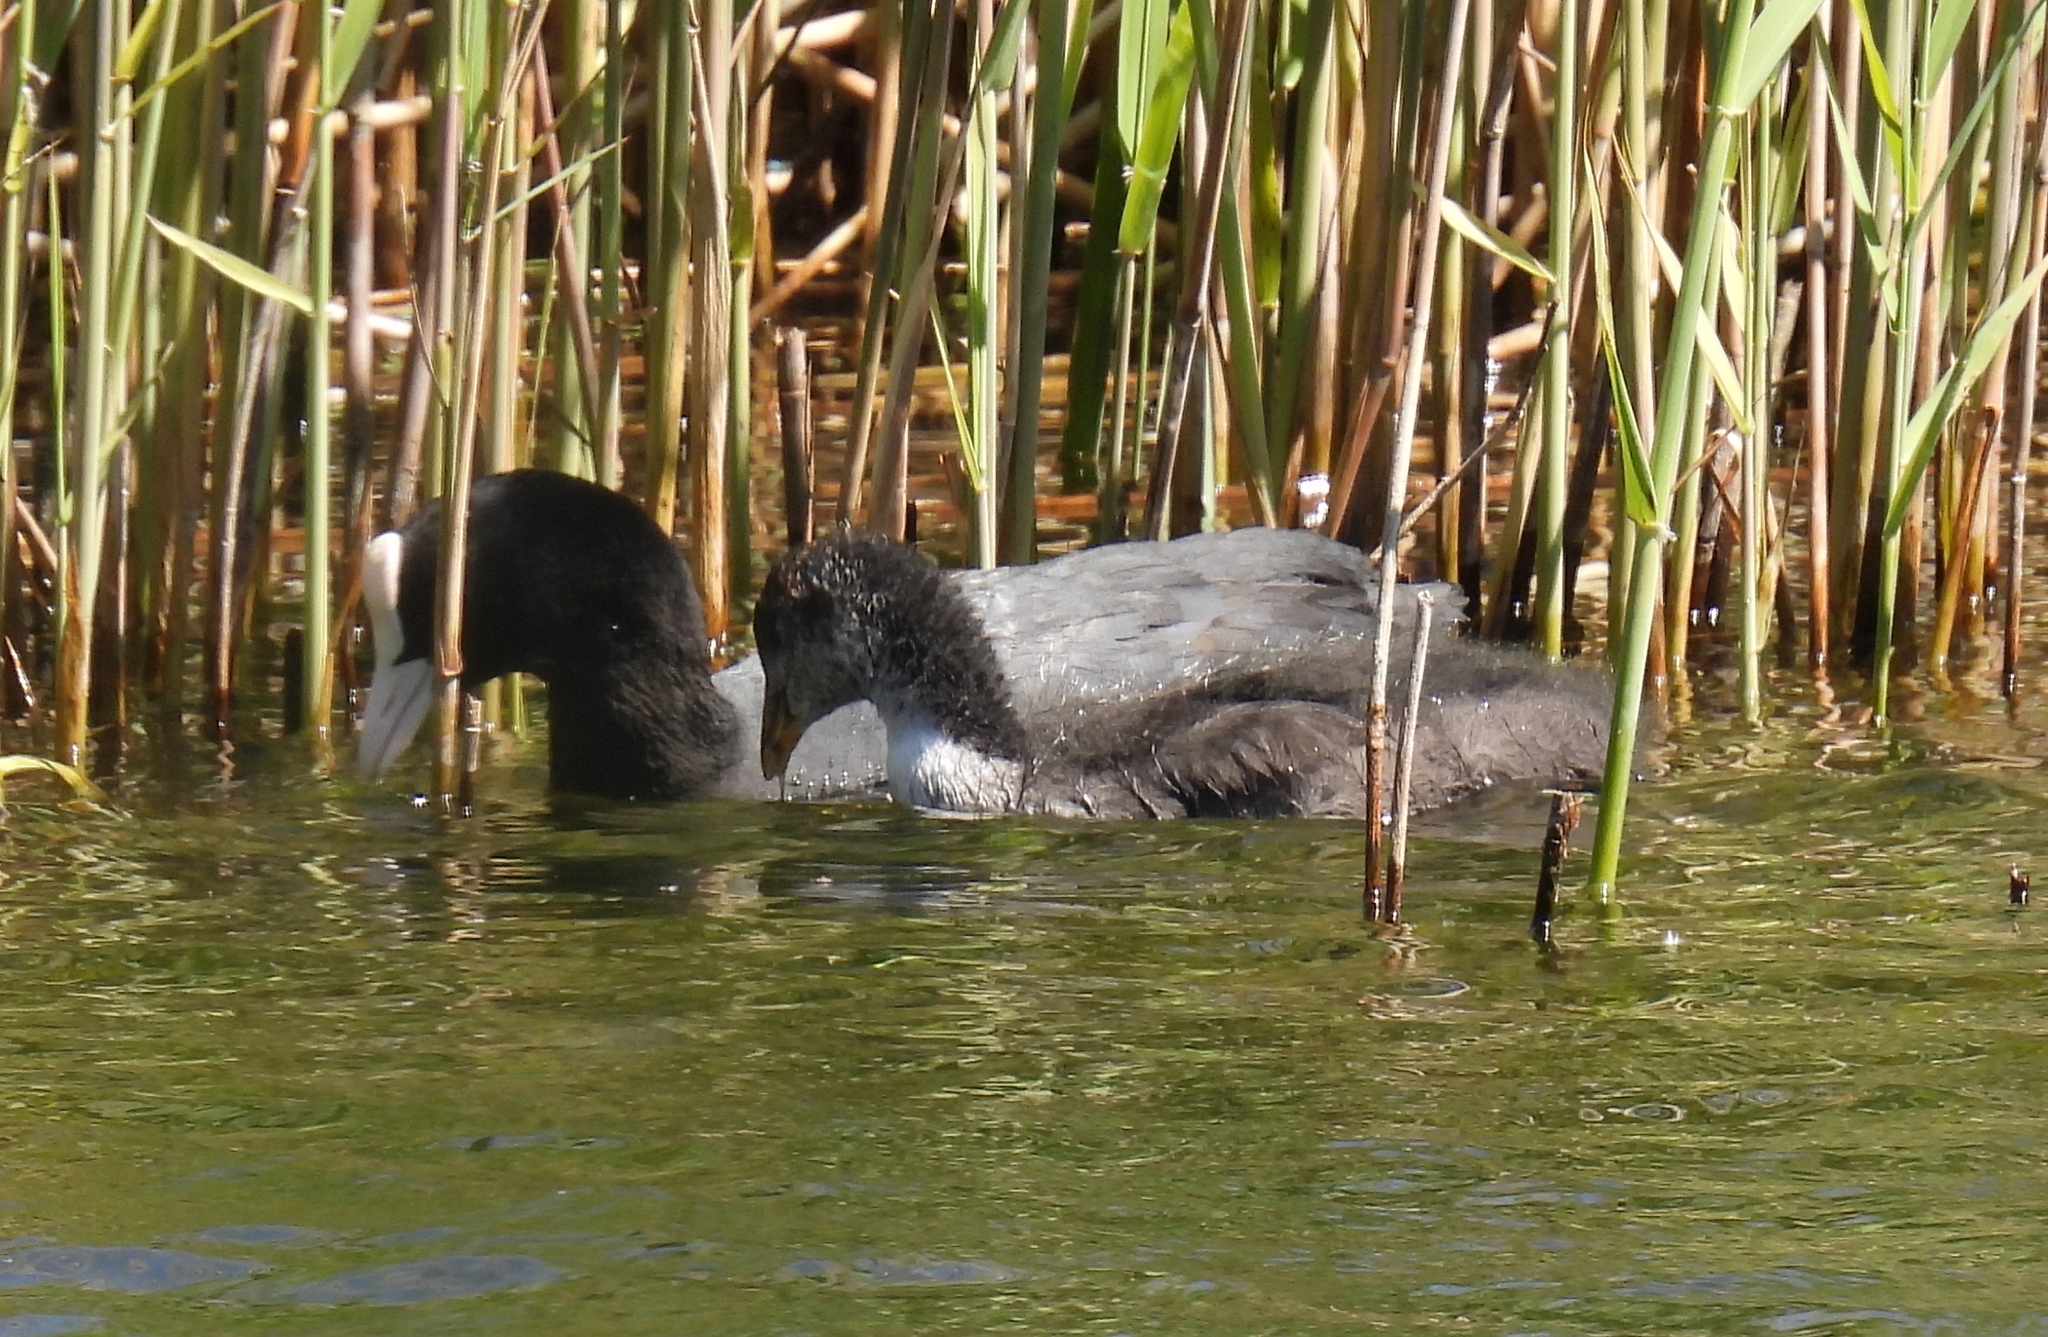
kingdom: Animalia
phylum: Chordata
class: Aves
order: Gruiformes
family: Rallidae
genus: Fulica
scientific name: Fulica atra
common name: Eurasian coot
